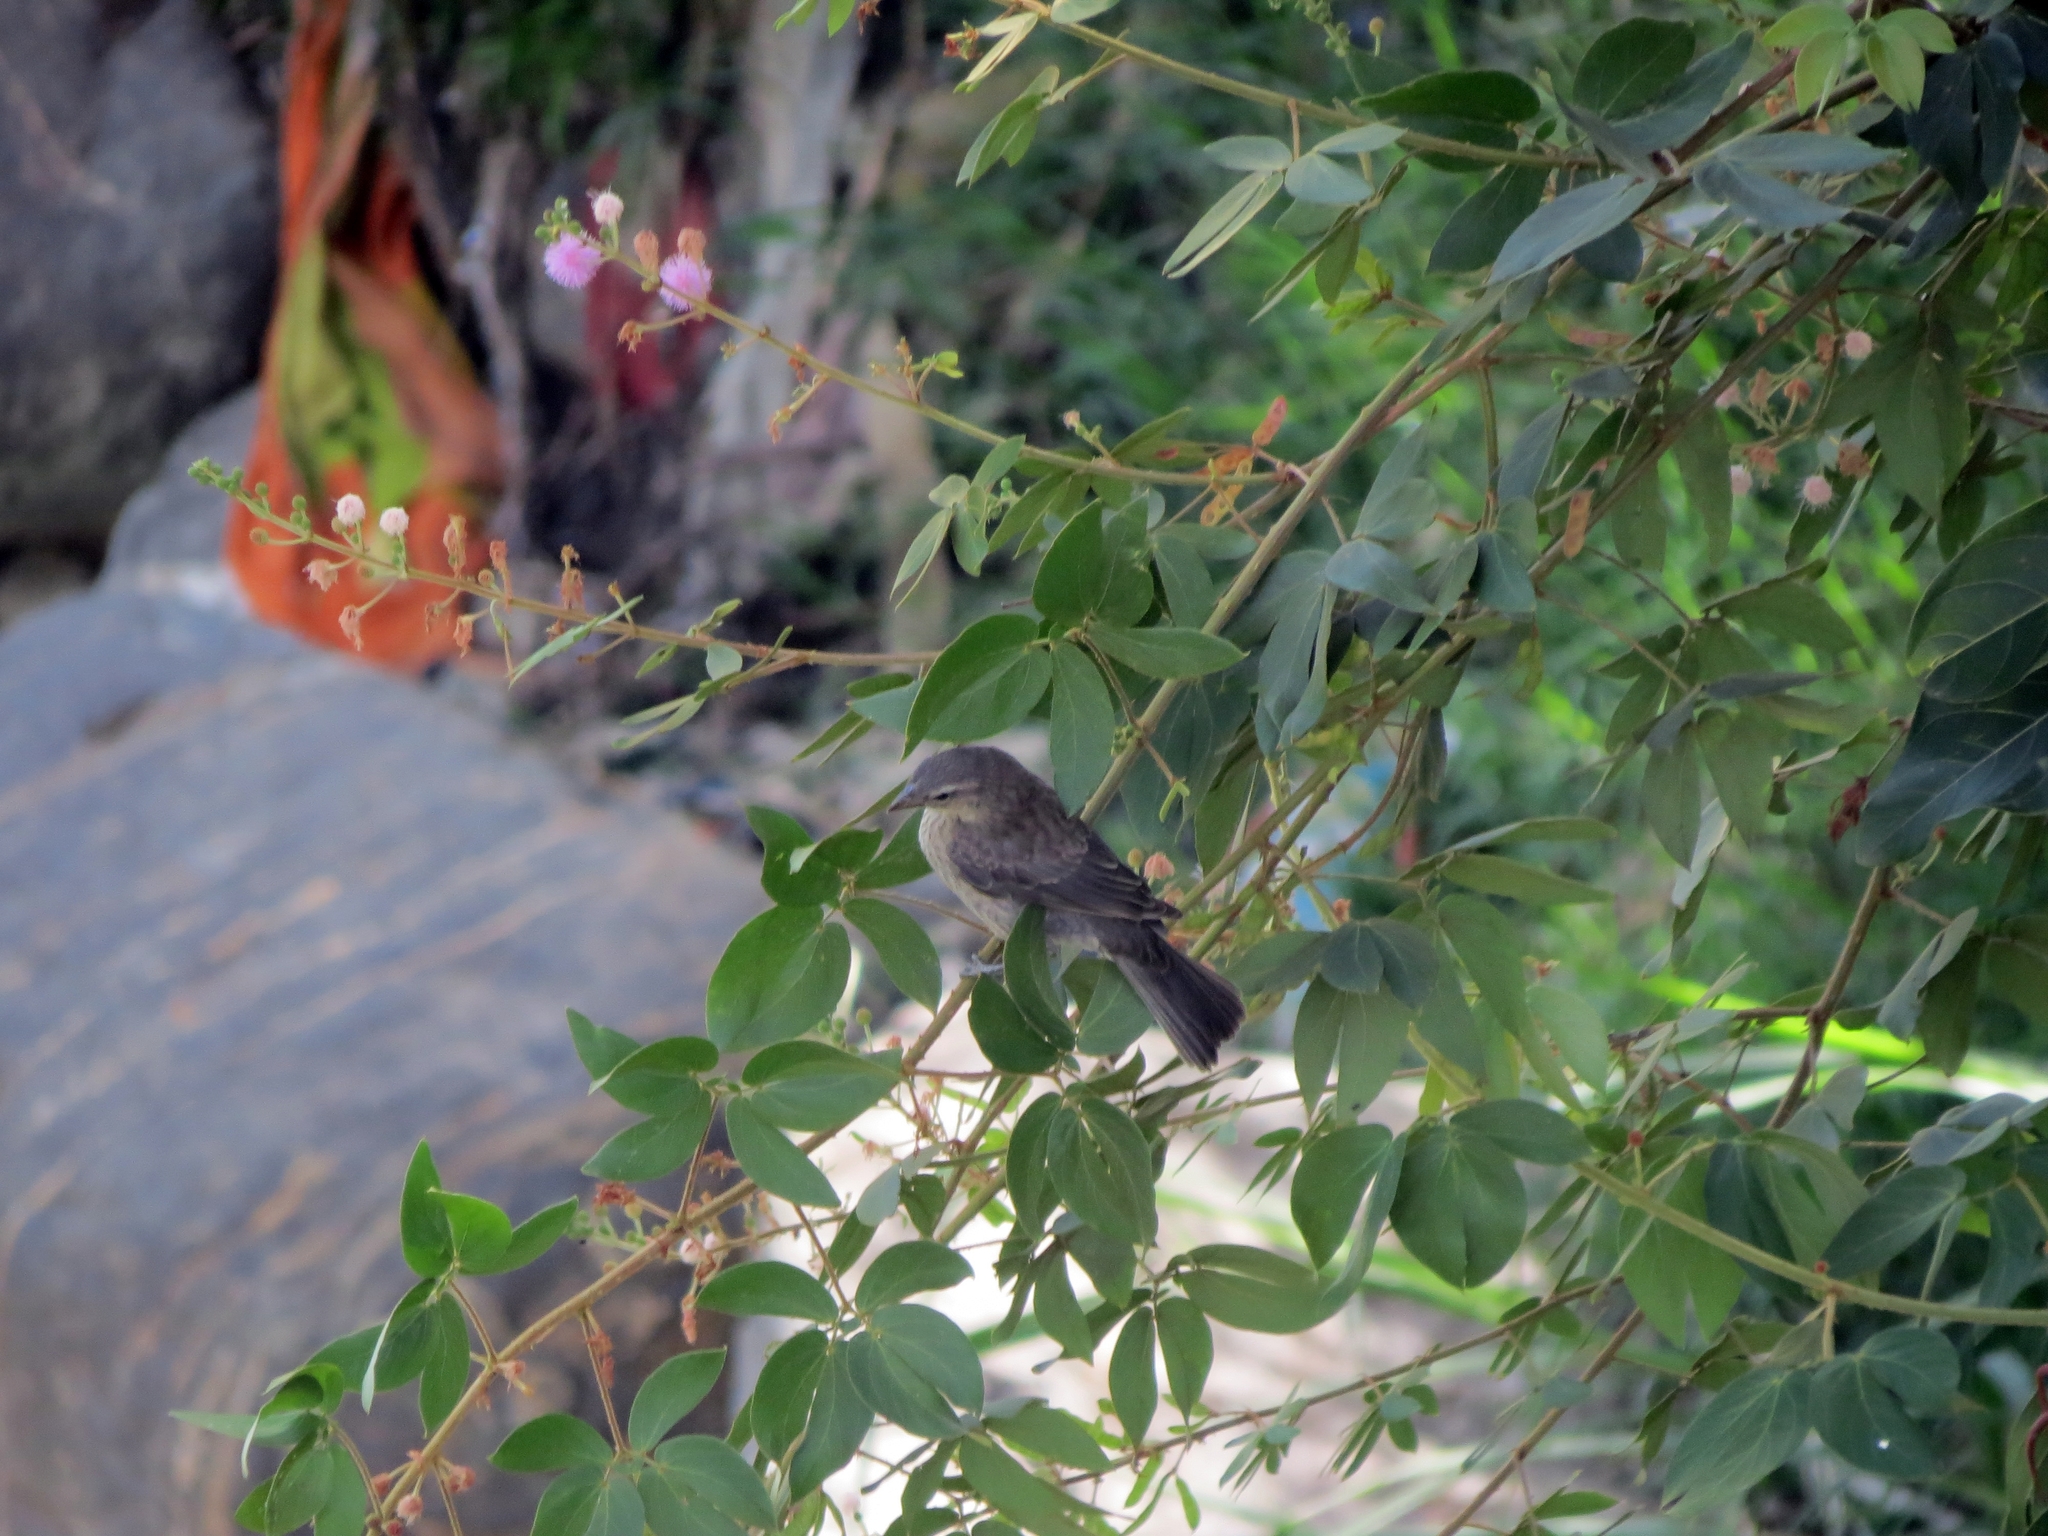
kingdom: Animalia
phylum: Chordata
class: Aves
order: Passeriformes
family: Icteridae
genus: Molothrus
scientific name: Molothrus bonariensis
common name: Shiny cowbird
